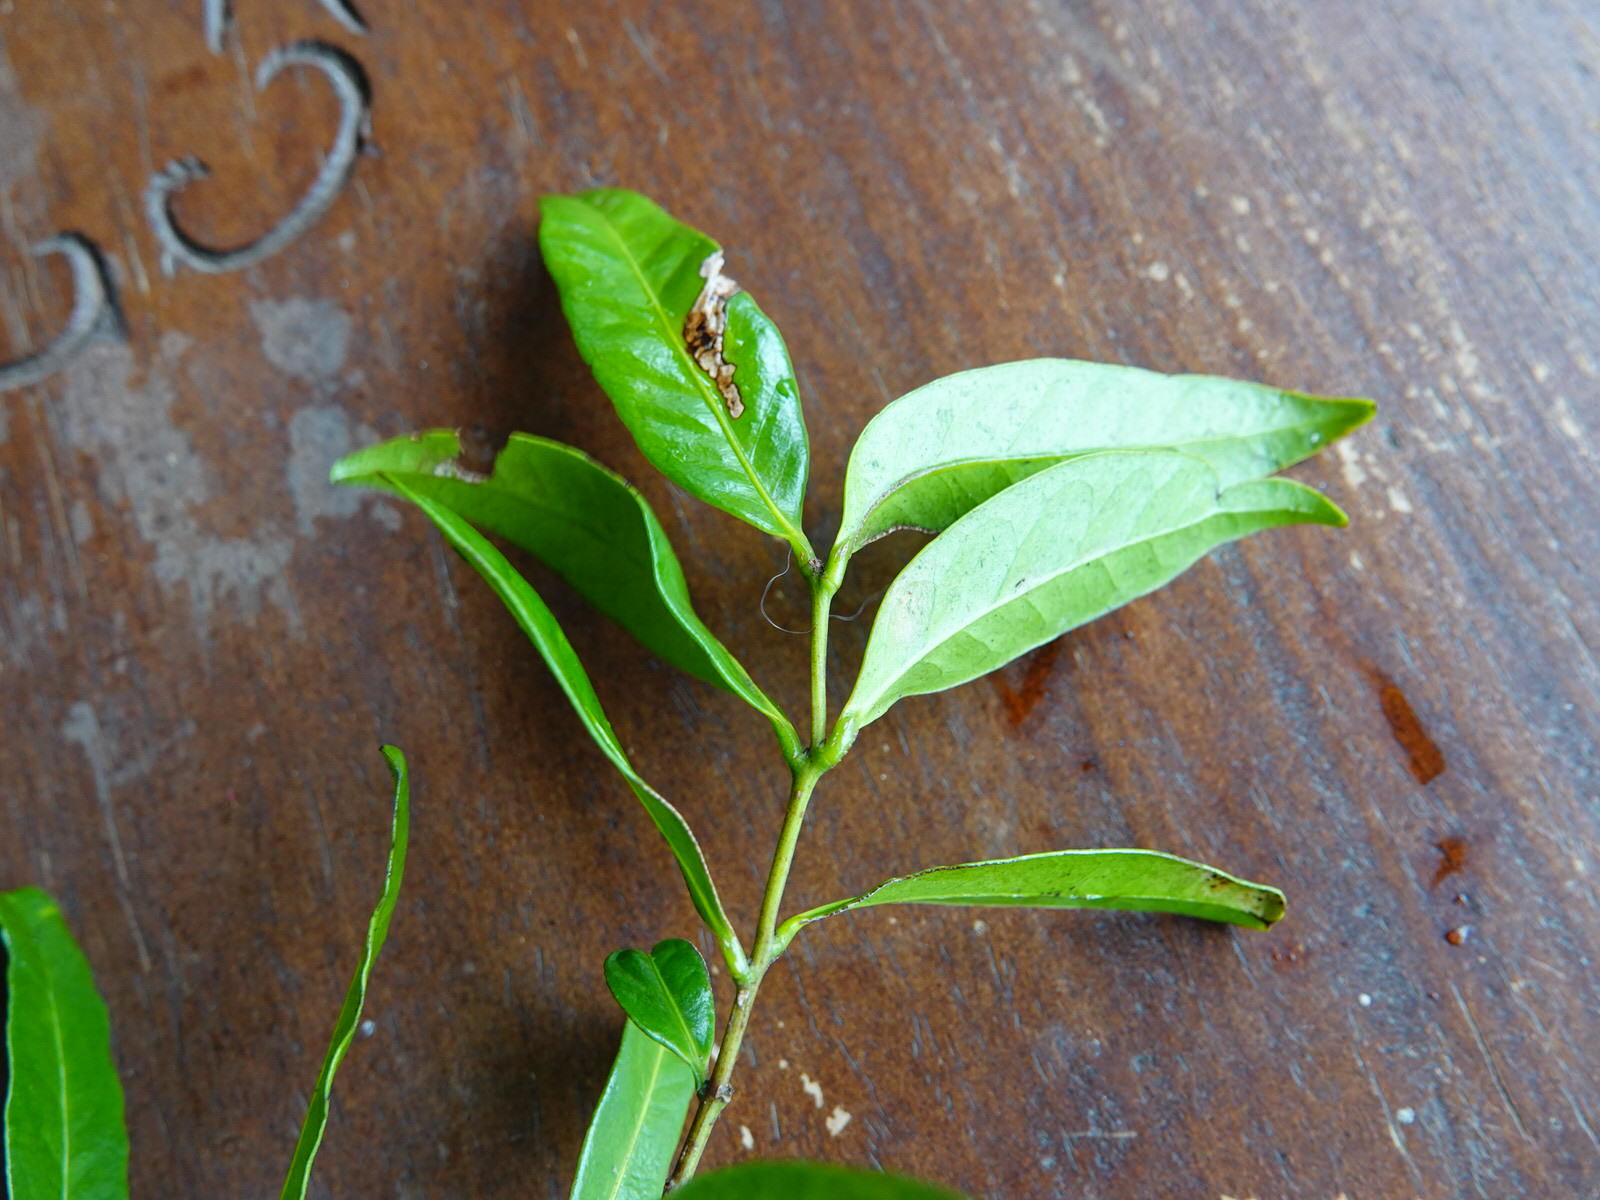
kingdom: Plantae
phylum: Tracheophyta
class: Magnoliopsida
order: Lamiales
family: Oleaceae
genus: Nestegis
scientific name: Nestegis lanceolata
